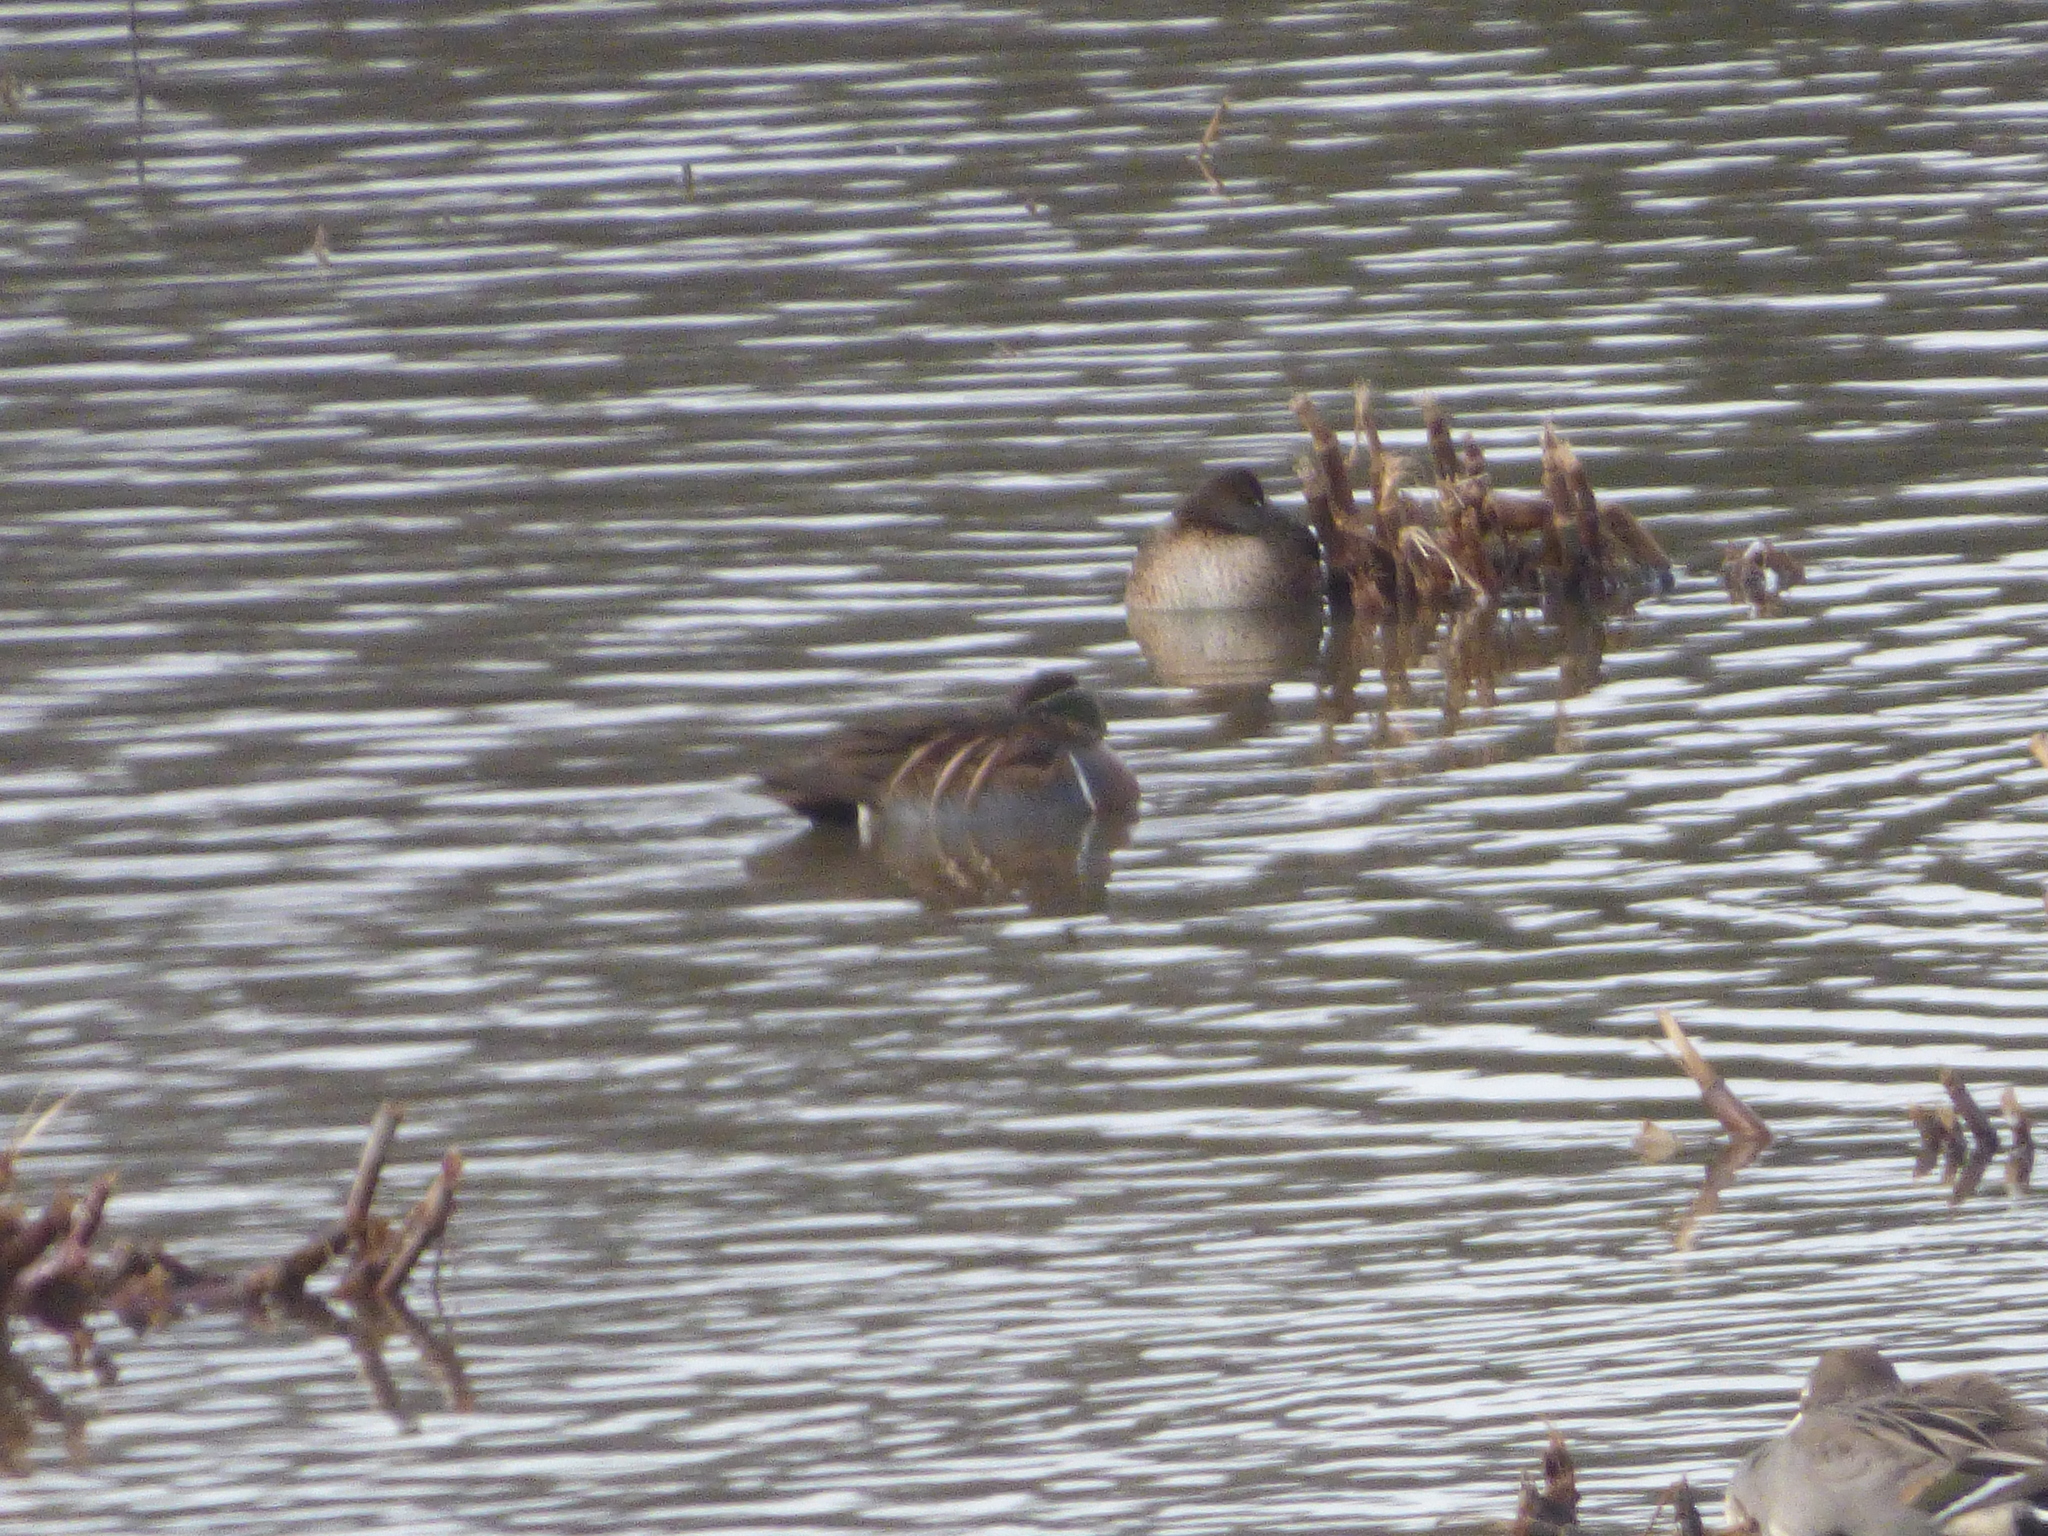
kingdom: Animalia
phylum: Chordata
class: Aves
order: Anseriformes
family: Anatidae
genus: Sibirionetta
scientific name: Sibirionetta formosa
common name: Baikal teal
